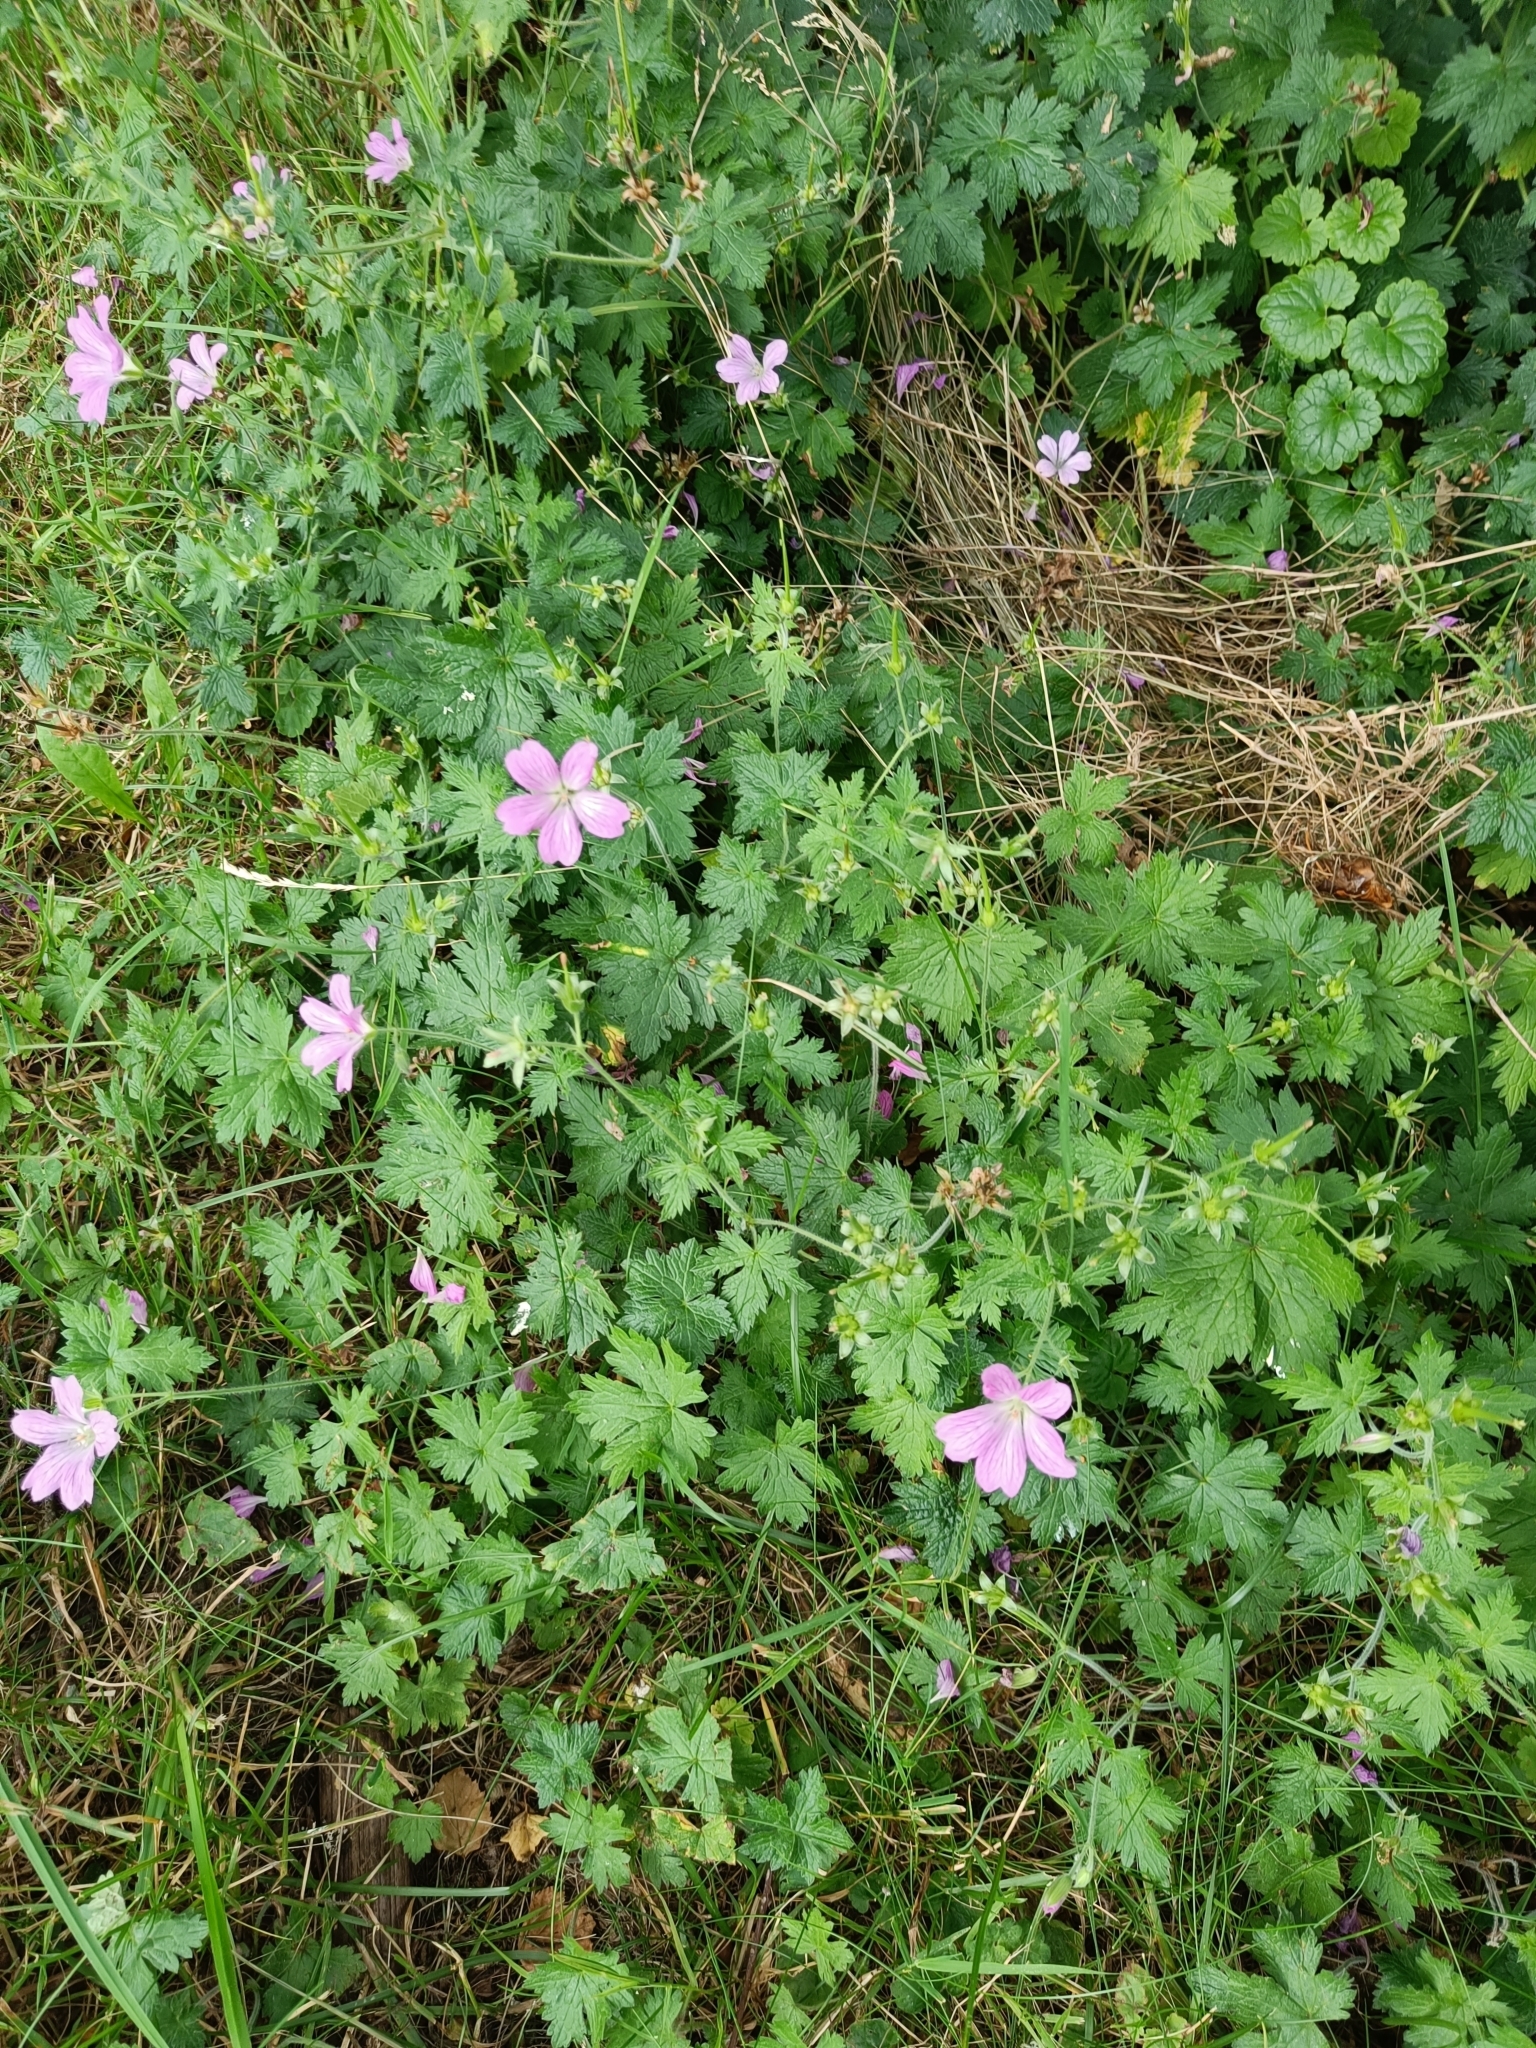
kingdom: Plantae
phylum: Tracheophyta
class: Magnoliopsida
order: Geraniales
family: Geraniaceae
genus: Geranium
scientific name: Geranium oxonianum
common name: Druce's crane's-bill
